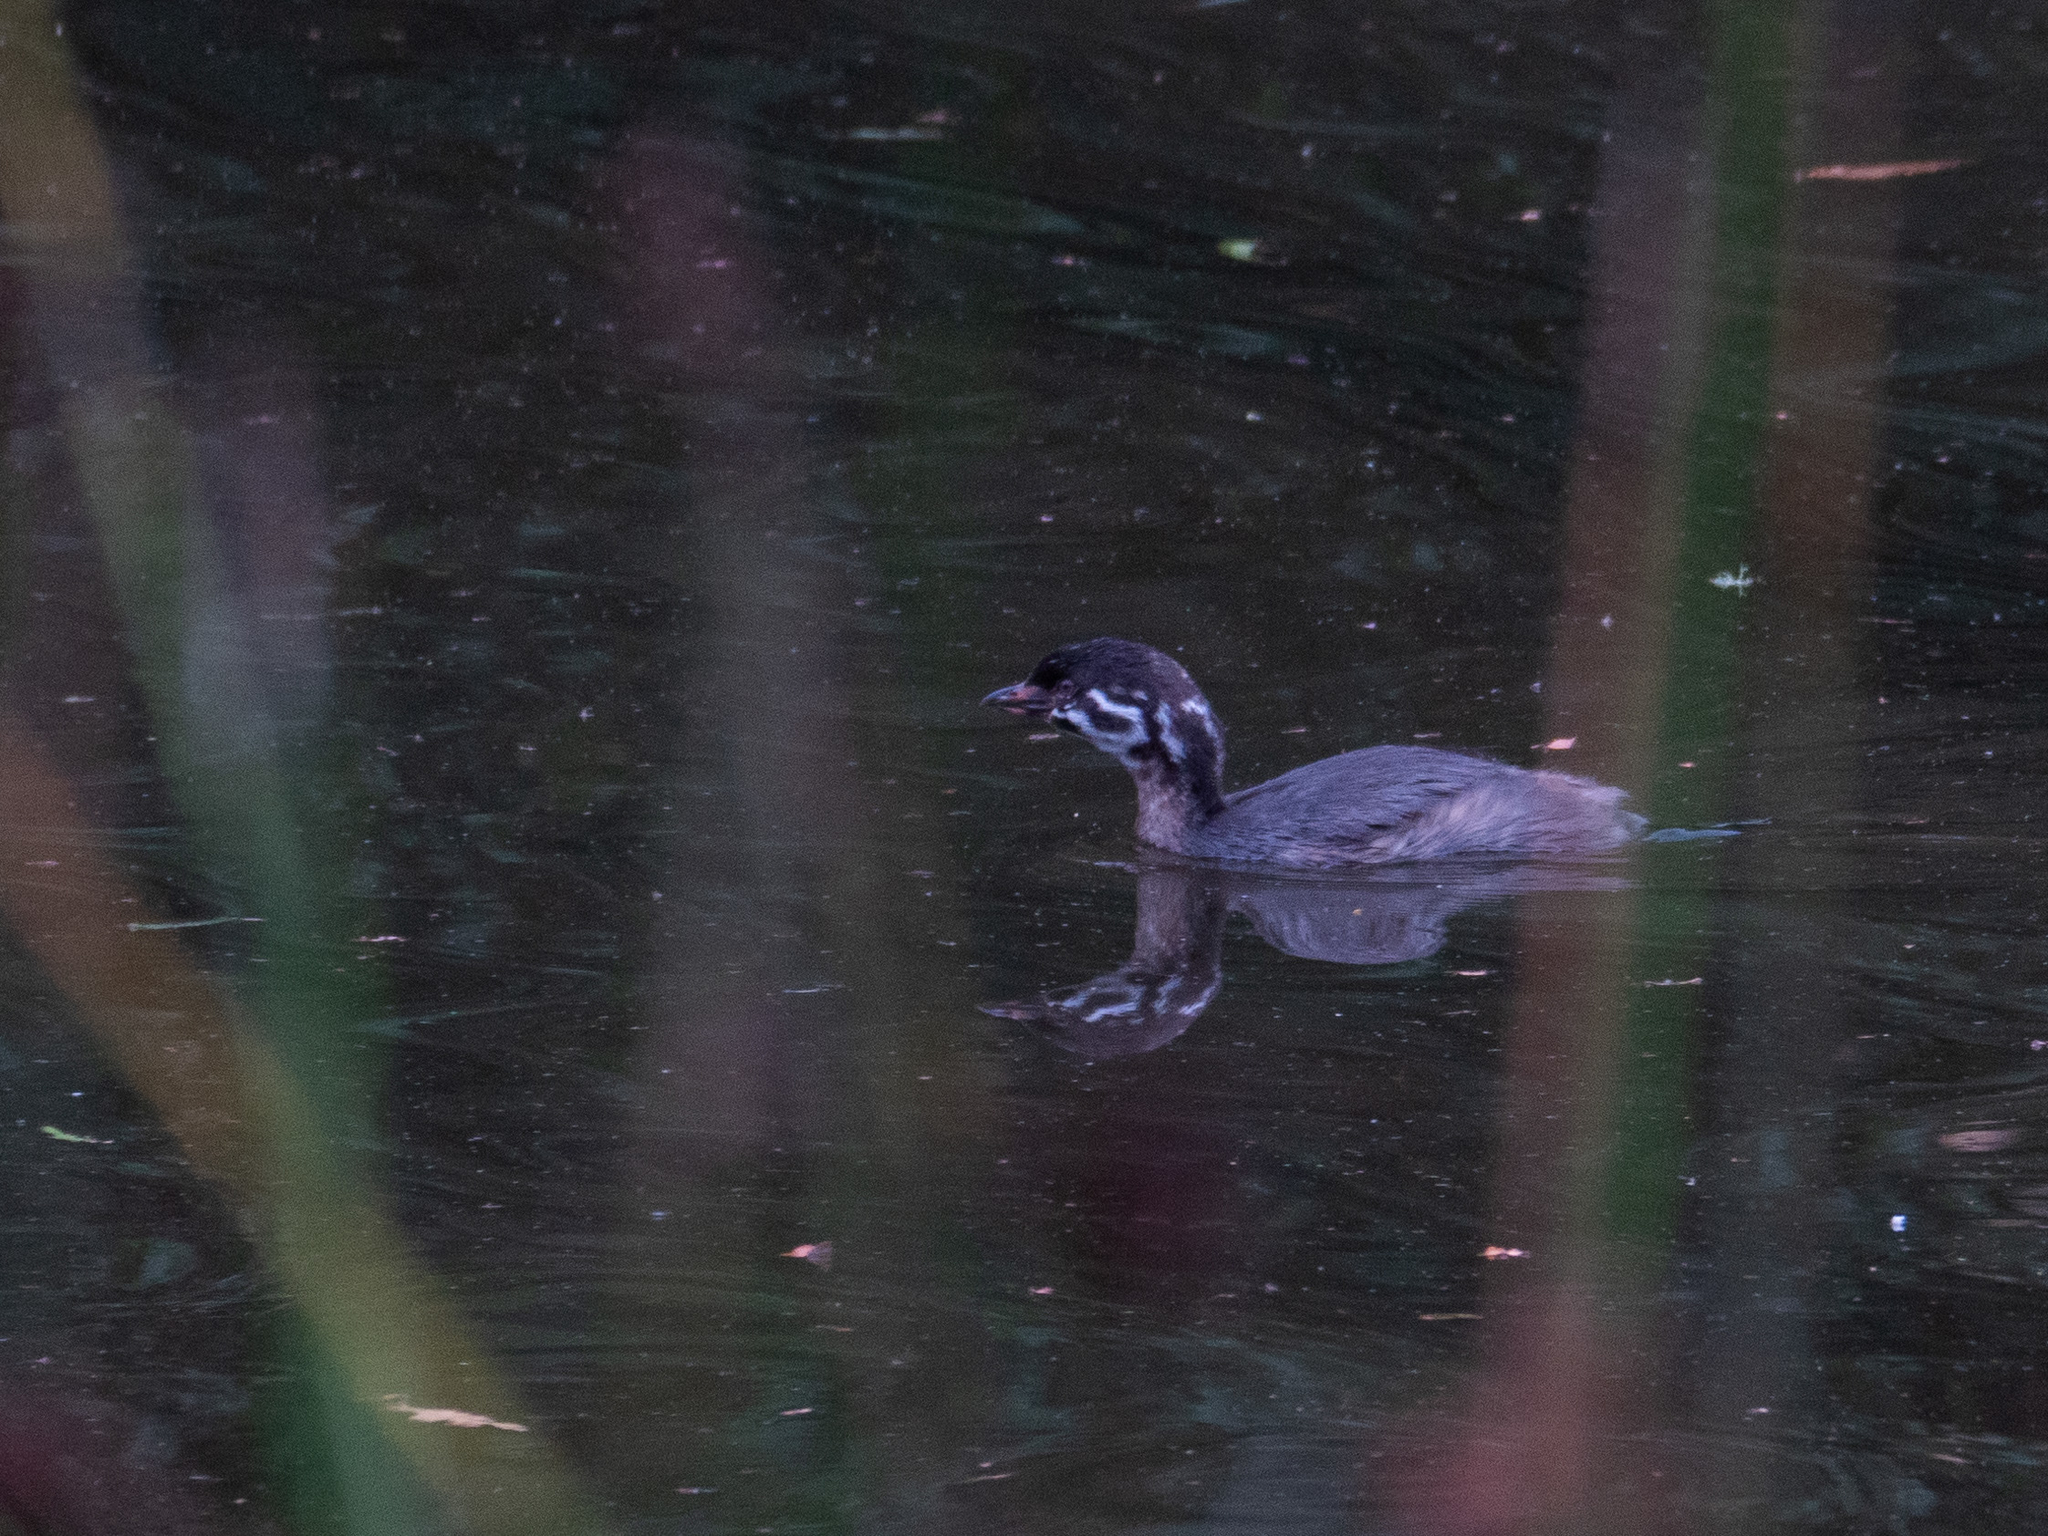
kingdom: Animalia
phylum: Chordata
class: Aves
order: Podicipediformes
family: Podicipedidae
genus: Podilymbus
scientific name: Podilymbus podiceps
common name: Pied-billed grebe
